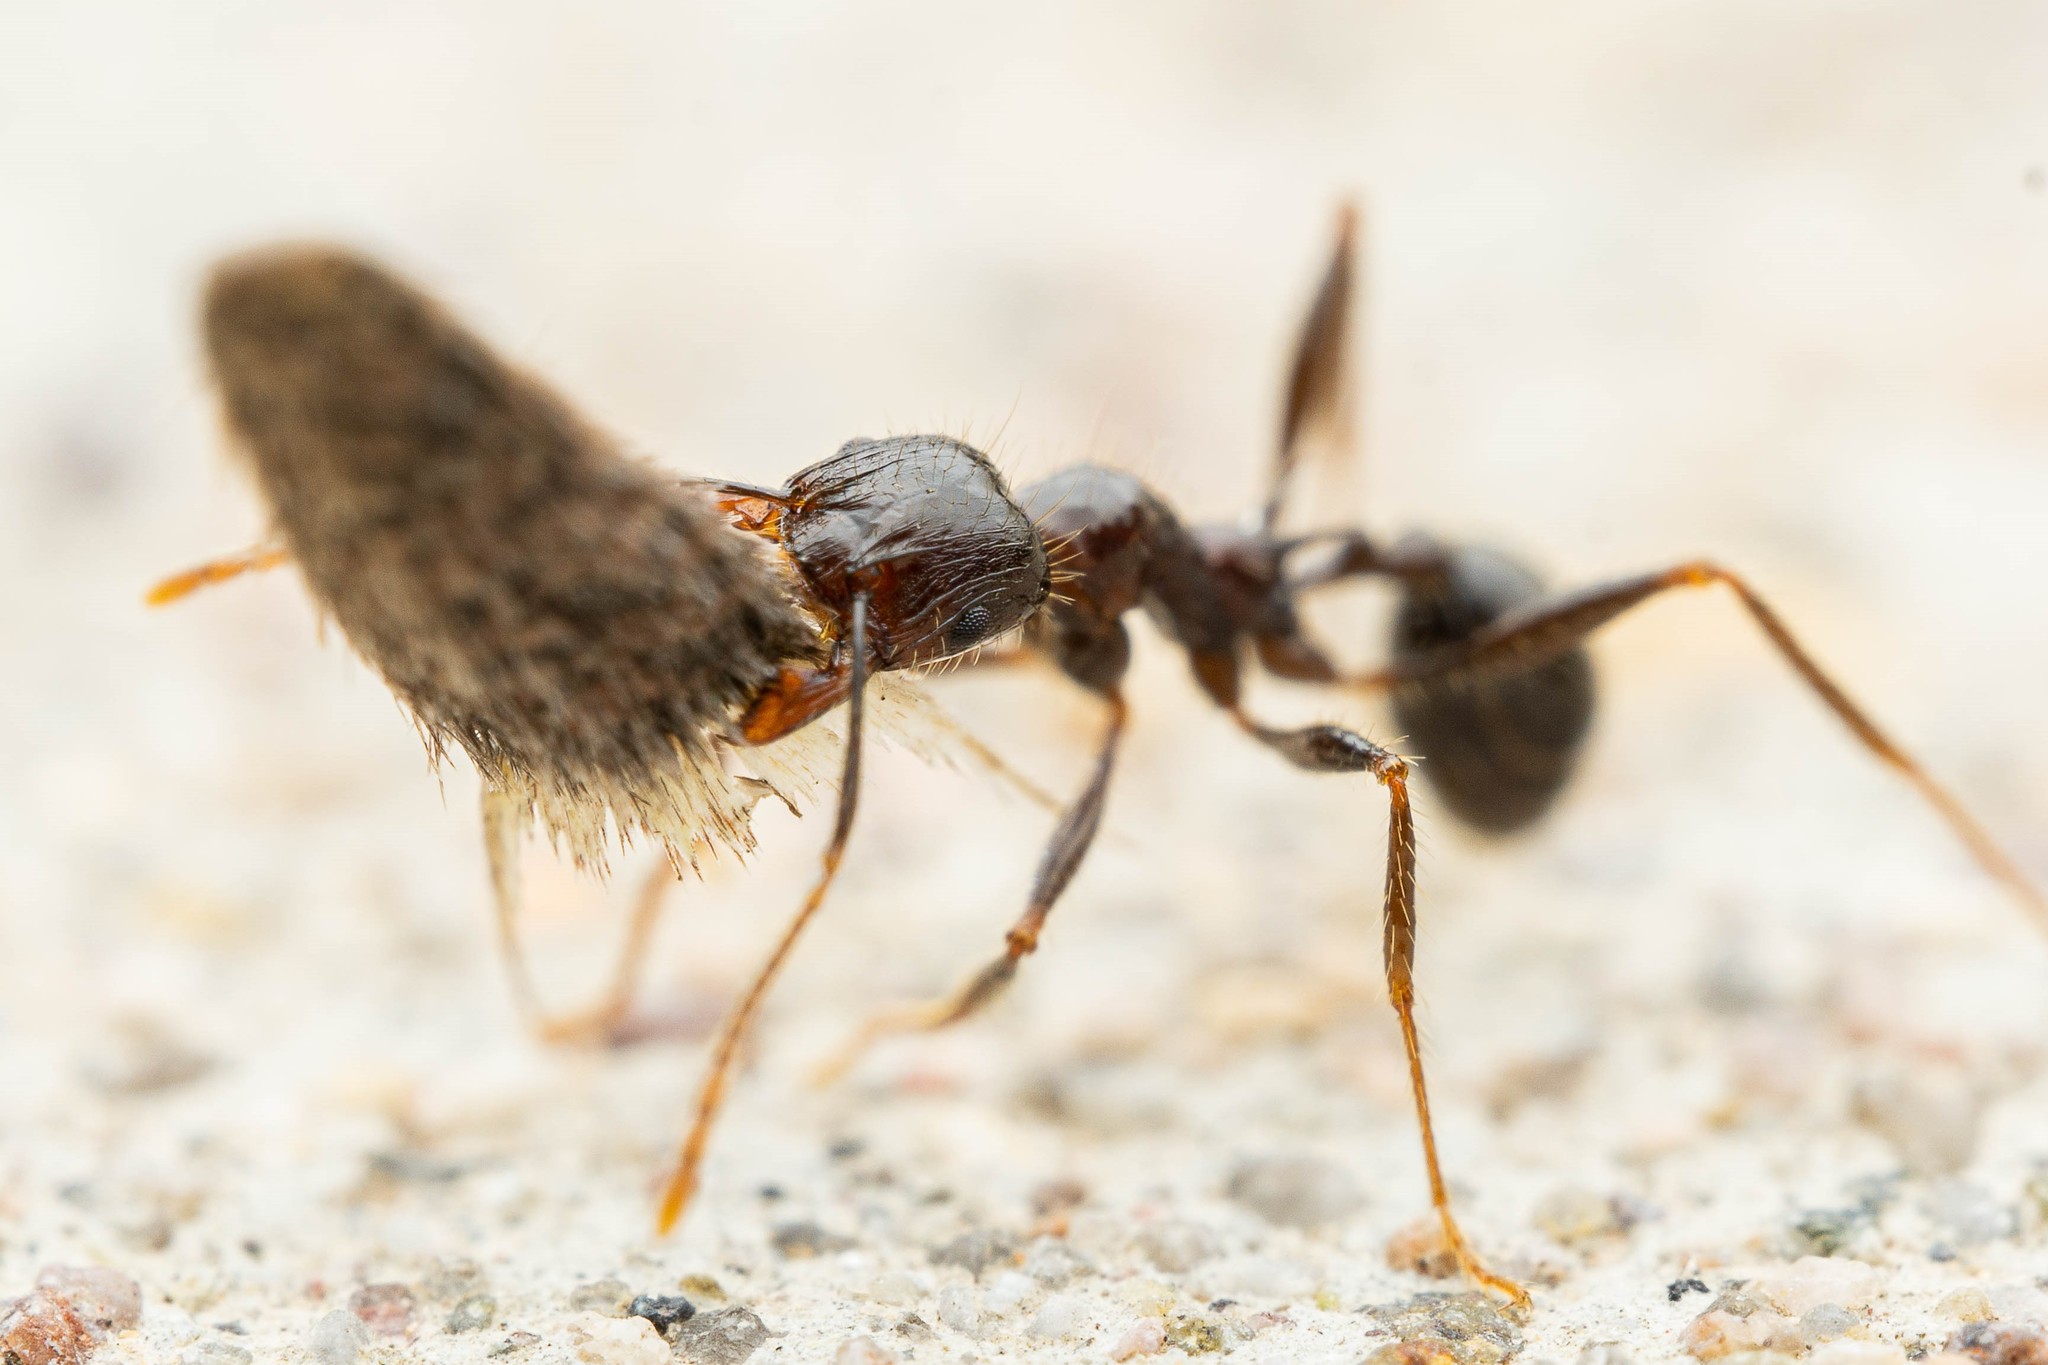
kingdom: Animalia
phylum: Arthropoda
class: Insecta
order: Hymenoptera
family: Formicidae
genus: Pheidole
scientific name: Pheidole rhea
